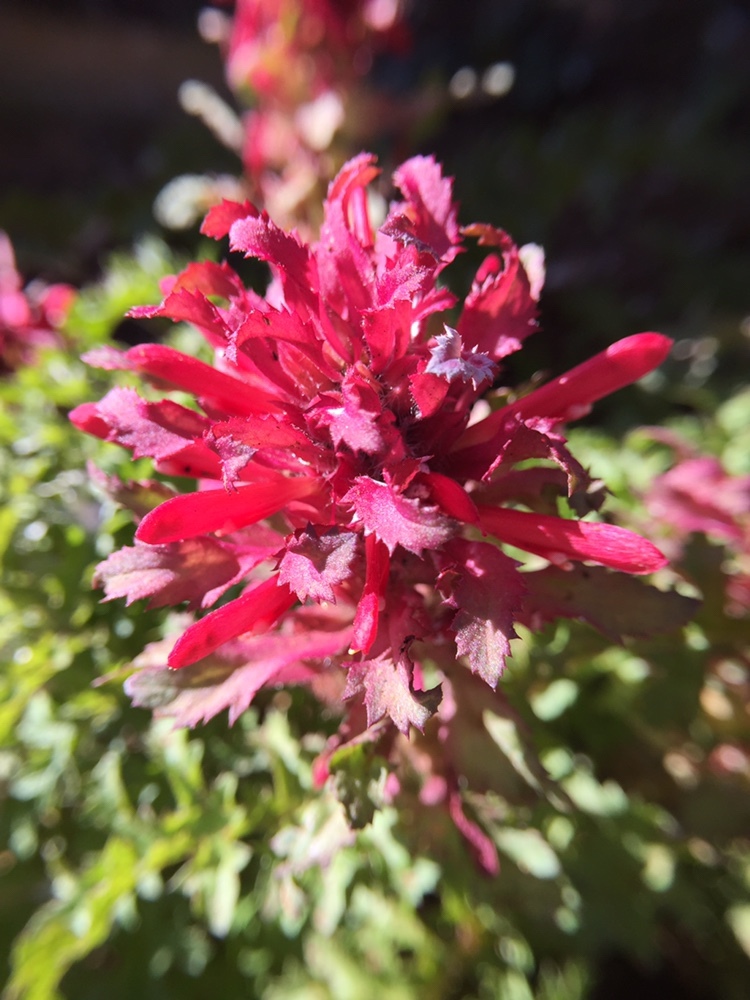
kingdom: Plantae
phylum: Tracheophyta
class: Magnoliopsida
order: Lamiales
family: Orobanchaceae
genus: Pedicularis
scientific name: Pedicularis densiflora
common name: Indian warrior
